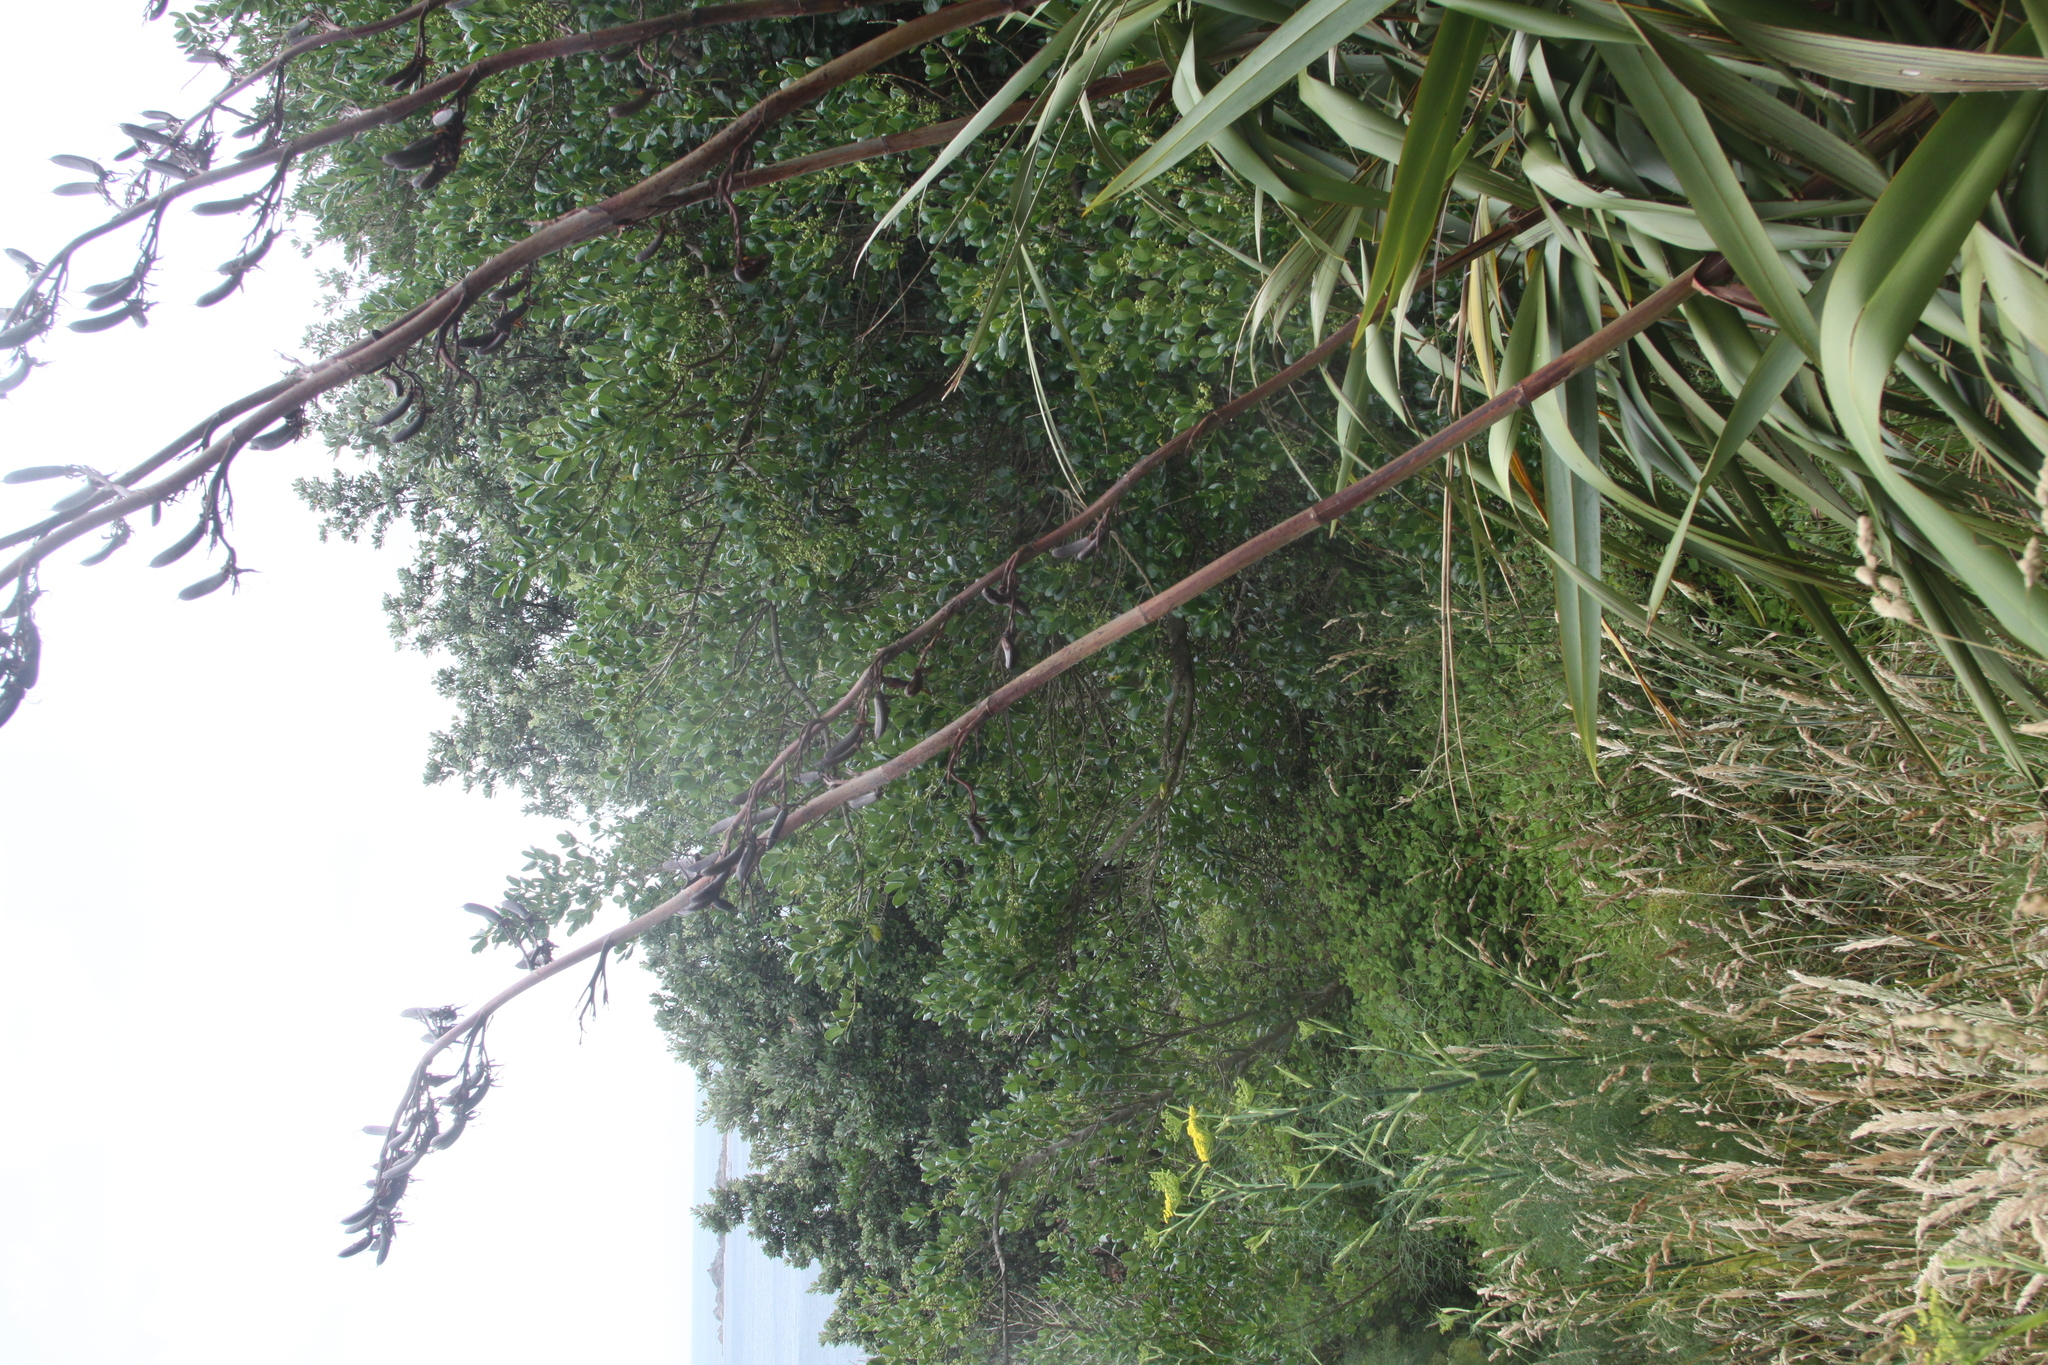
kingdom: Plantae
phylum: Tracheophyta
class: Liliopsida
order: Asparagales
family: Asphodelaceae
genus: Phormium
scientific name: Phormium tenax
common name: New zealand flax
